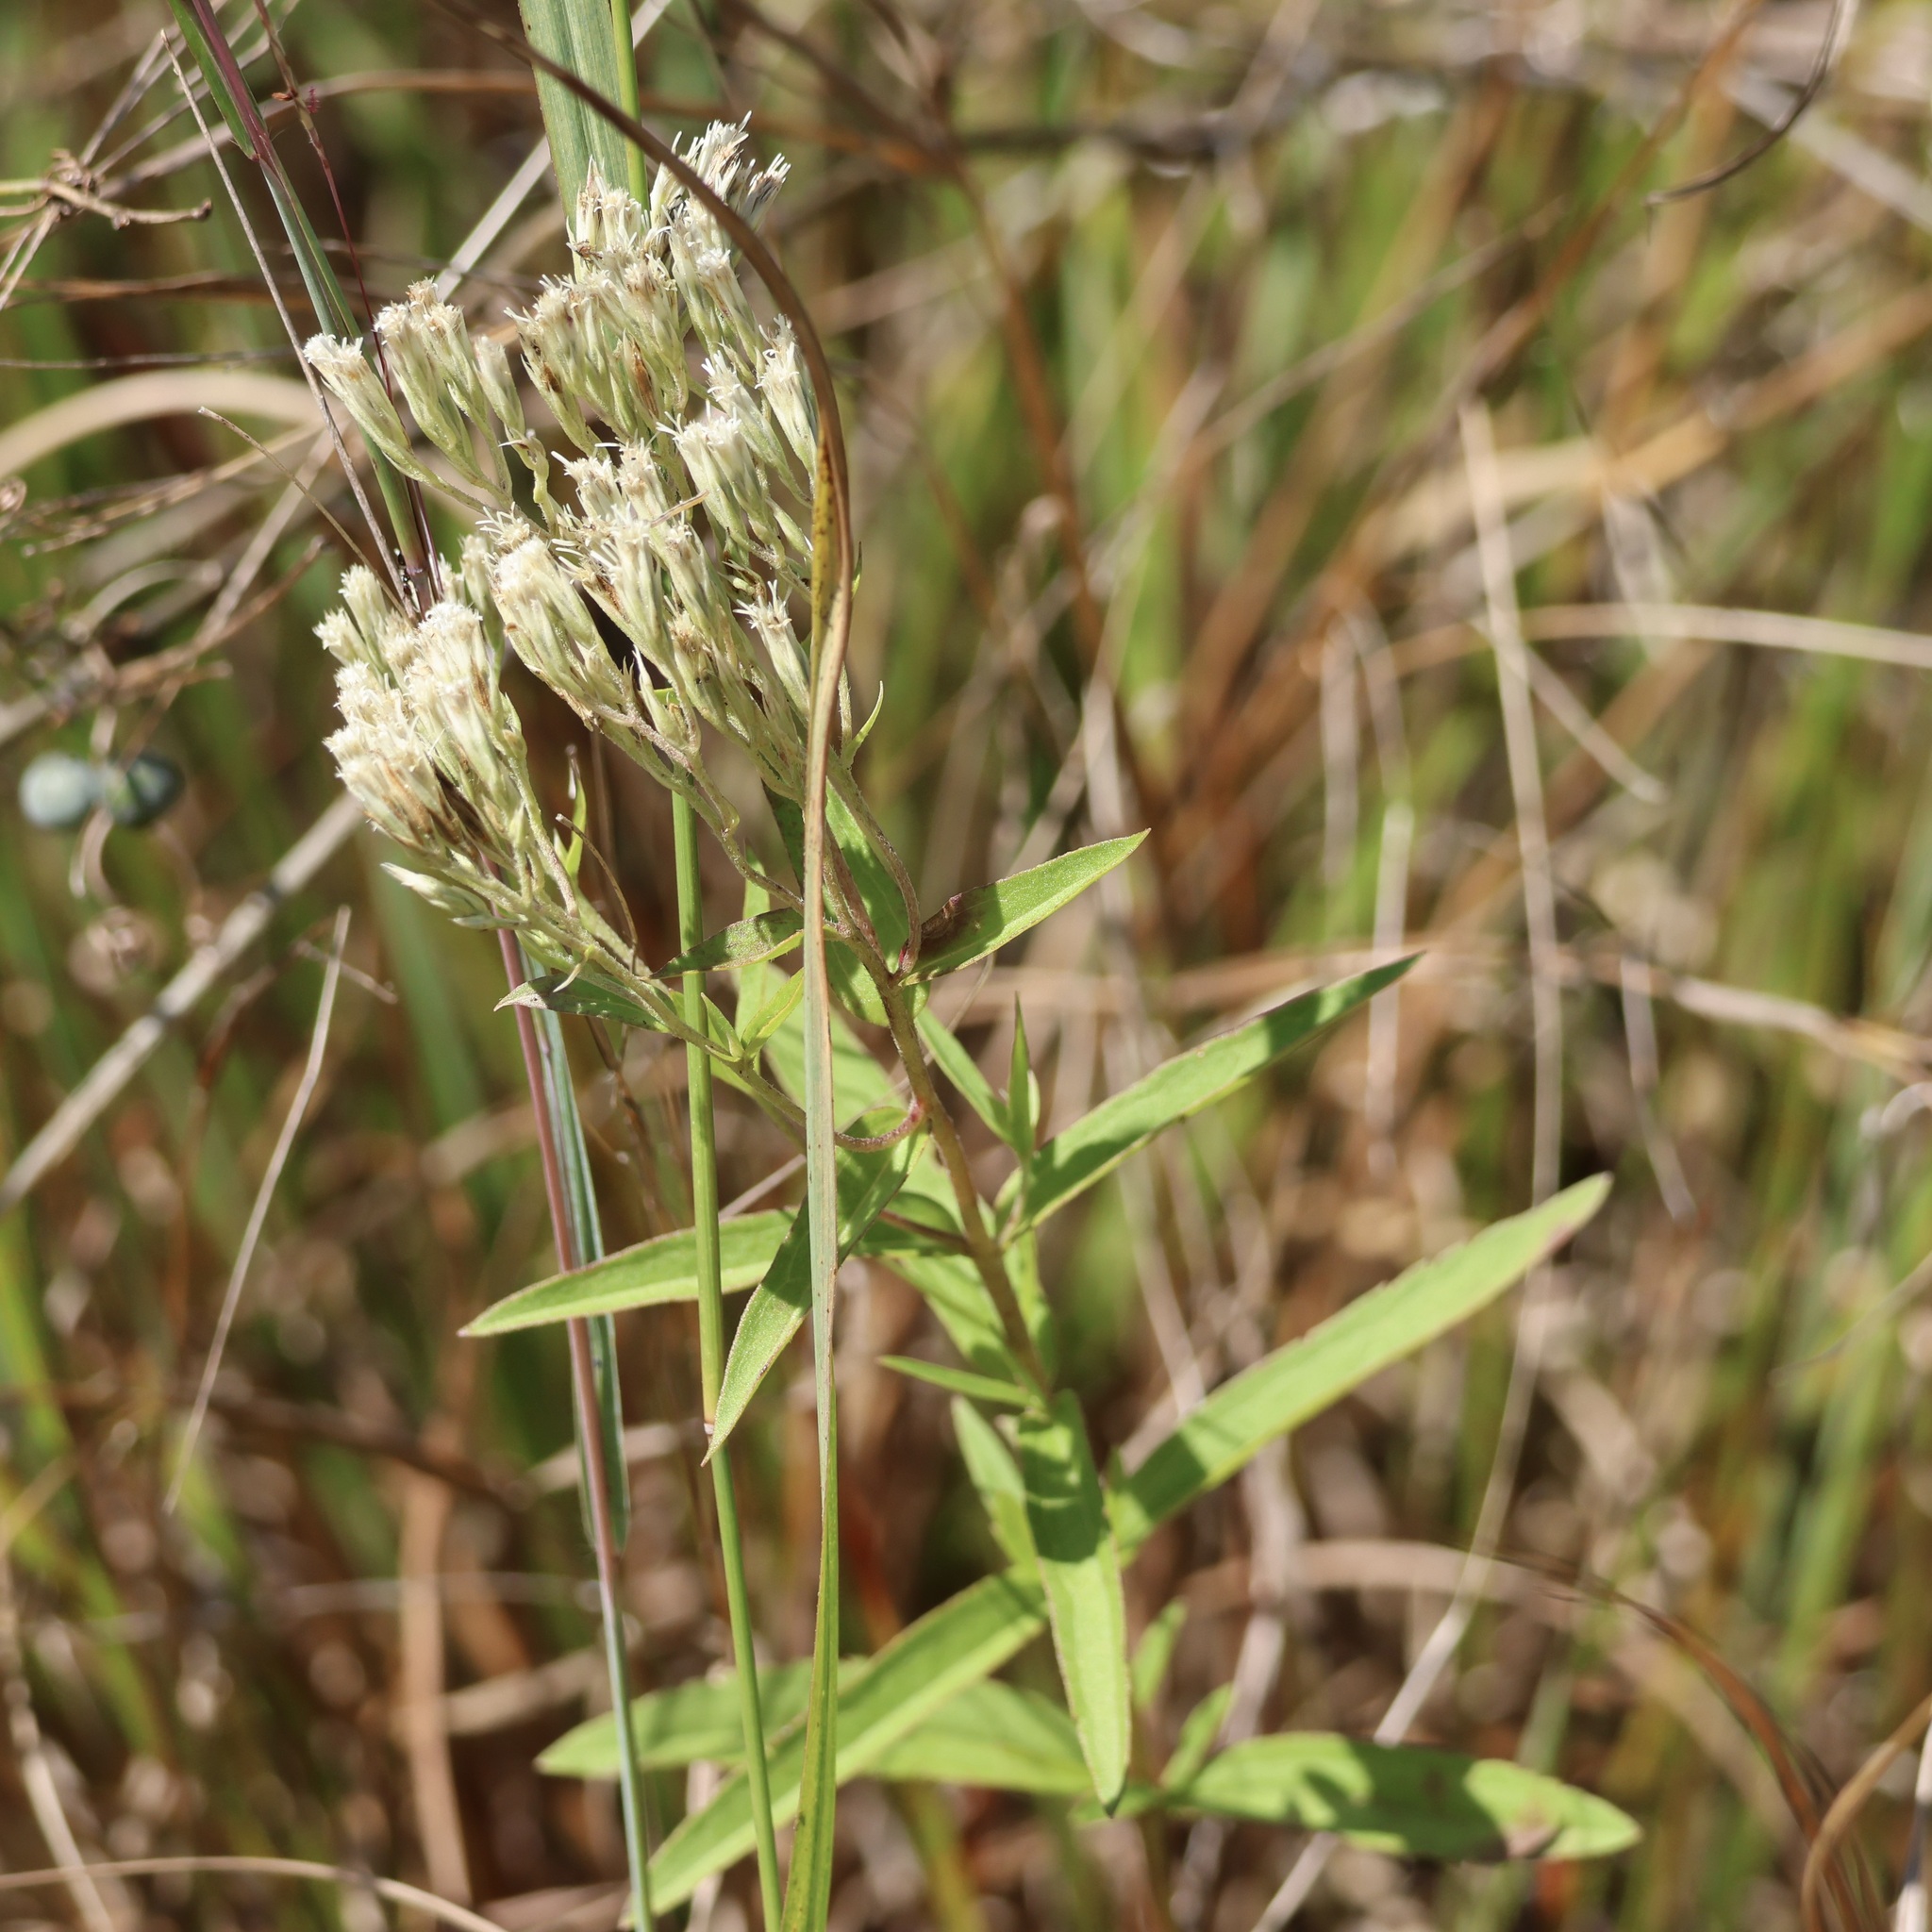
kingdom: Plantae
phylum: Tracheophyta
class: Magnoliopsida
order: Asterales
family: Asteraceae
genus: Eupatorium
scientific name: Eupatorium subvenosum
